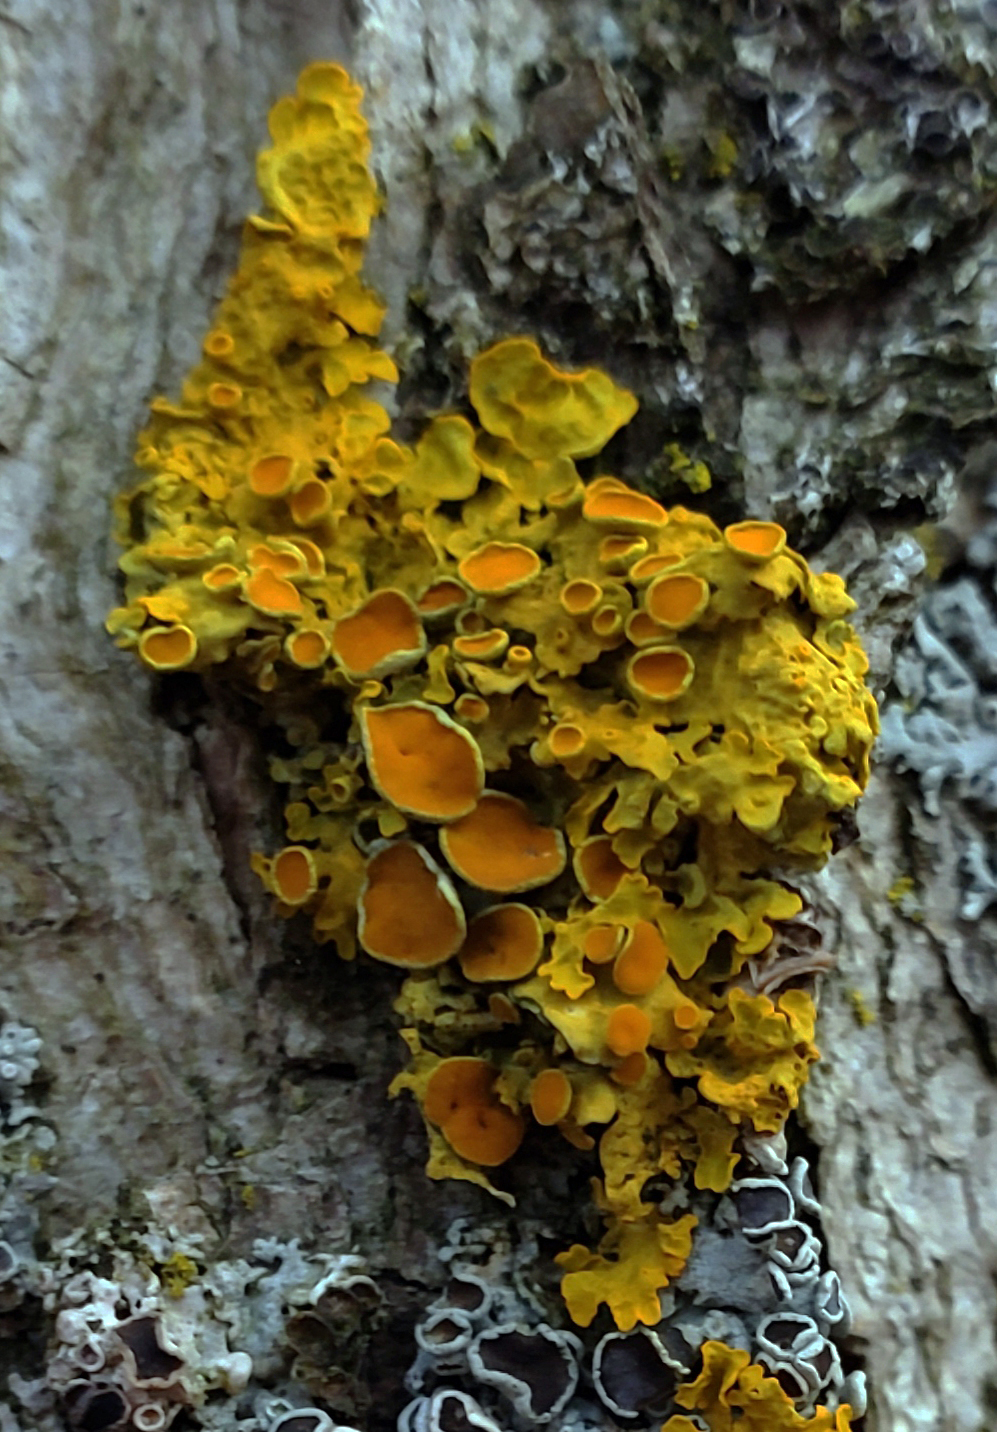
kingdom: Fungi
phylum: Ascomycota
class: Lecanoromycetes
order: Teloschistales
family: Teloschistaceae
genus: Xanthoria
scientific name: Xanthoria parietina
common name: Common orange lichen
